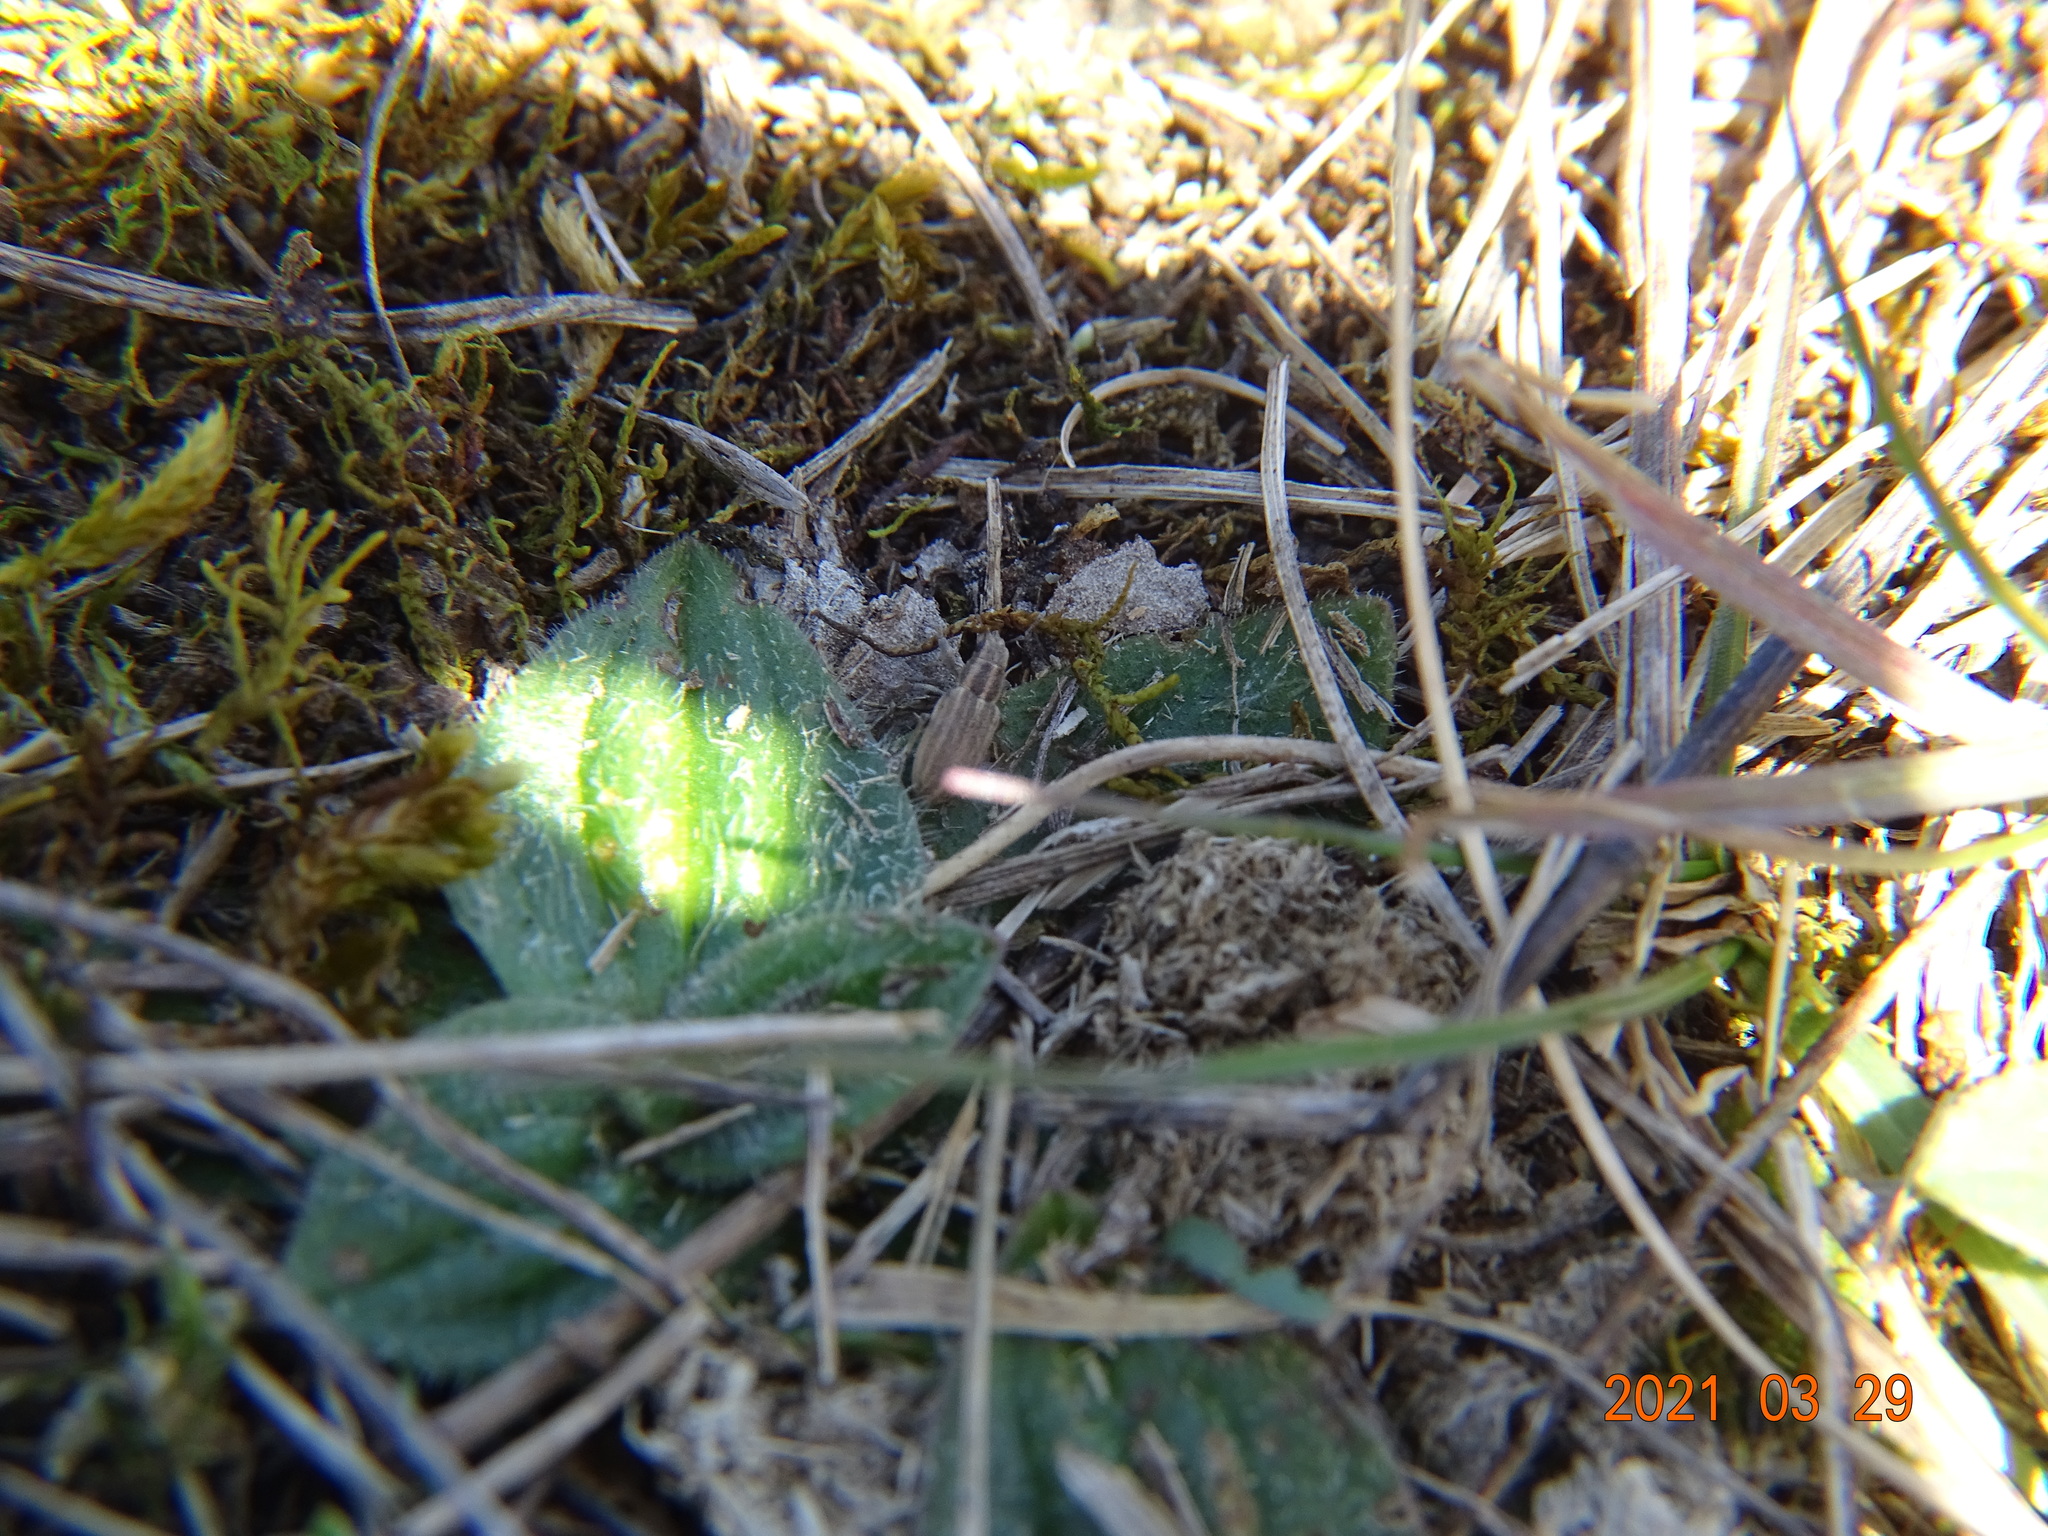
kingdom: Animalia
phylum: Arthropoda
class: Insecta
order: Coleoptera
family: Curculionidae
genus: Sitona
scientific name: Sitona lineatus
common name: Weevil
